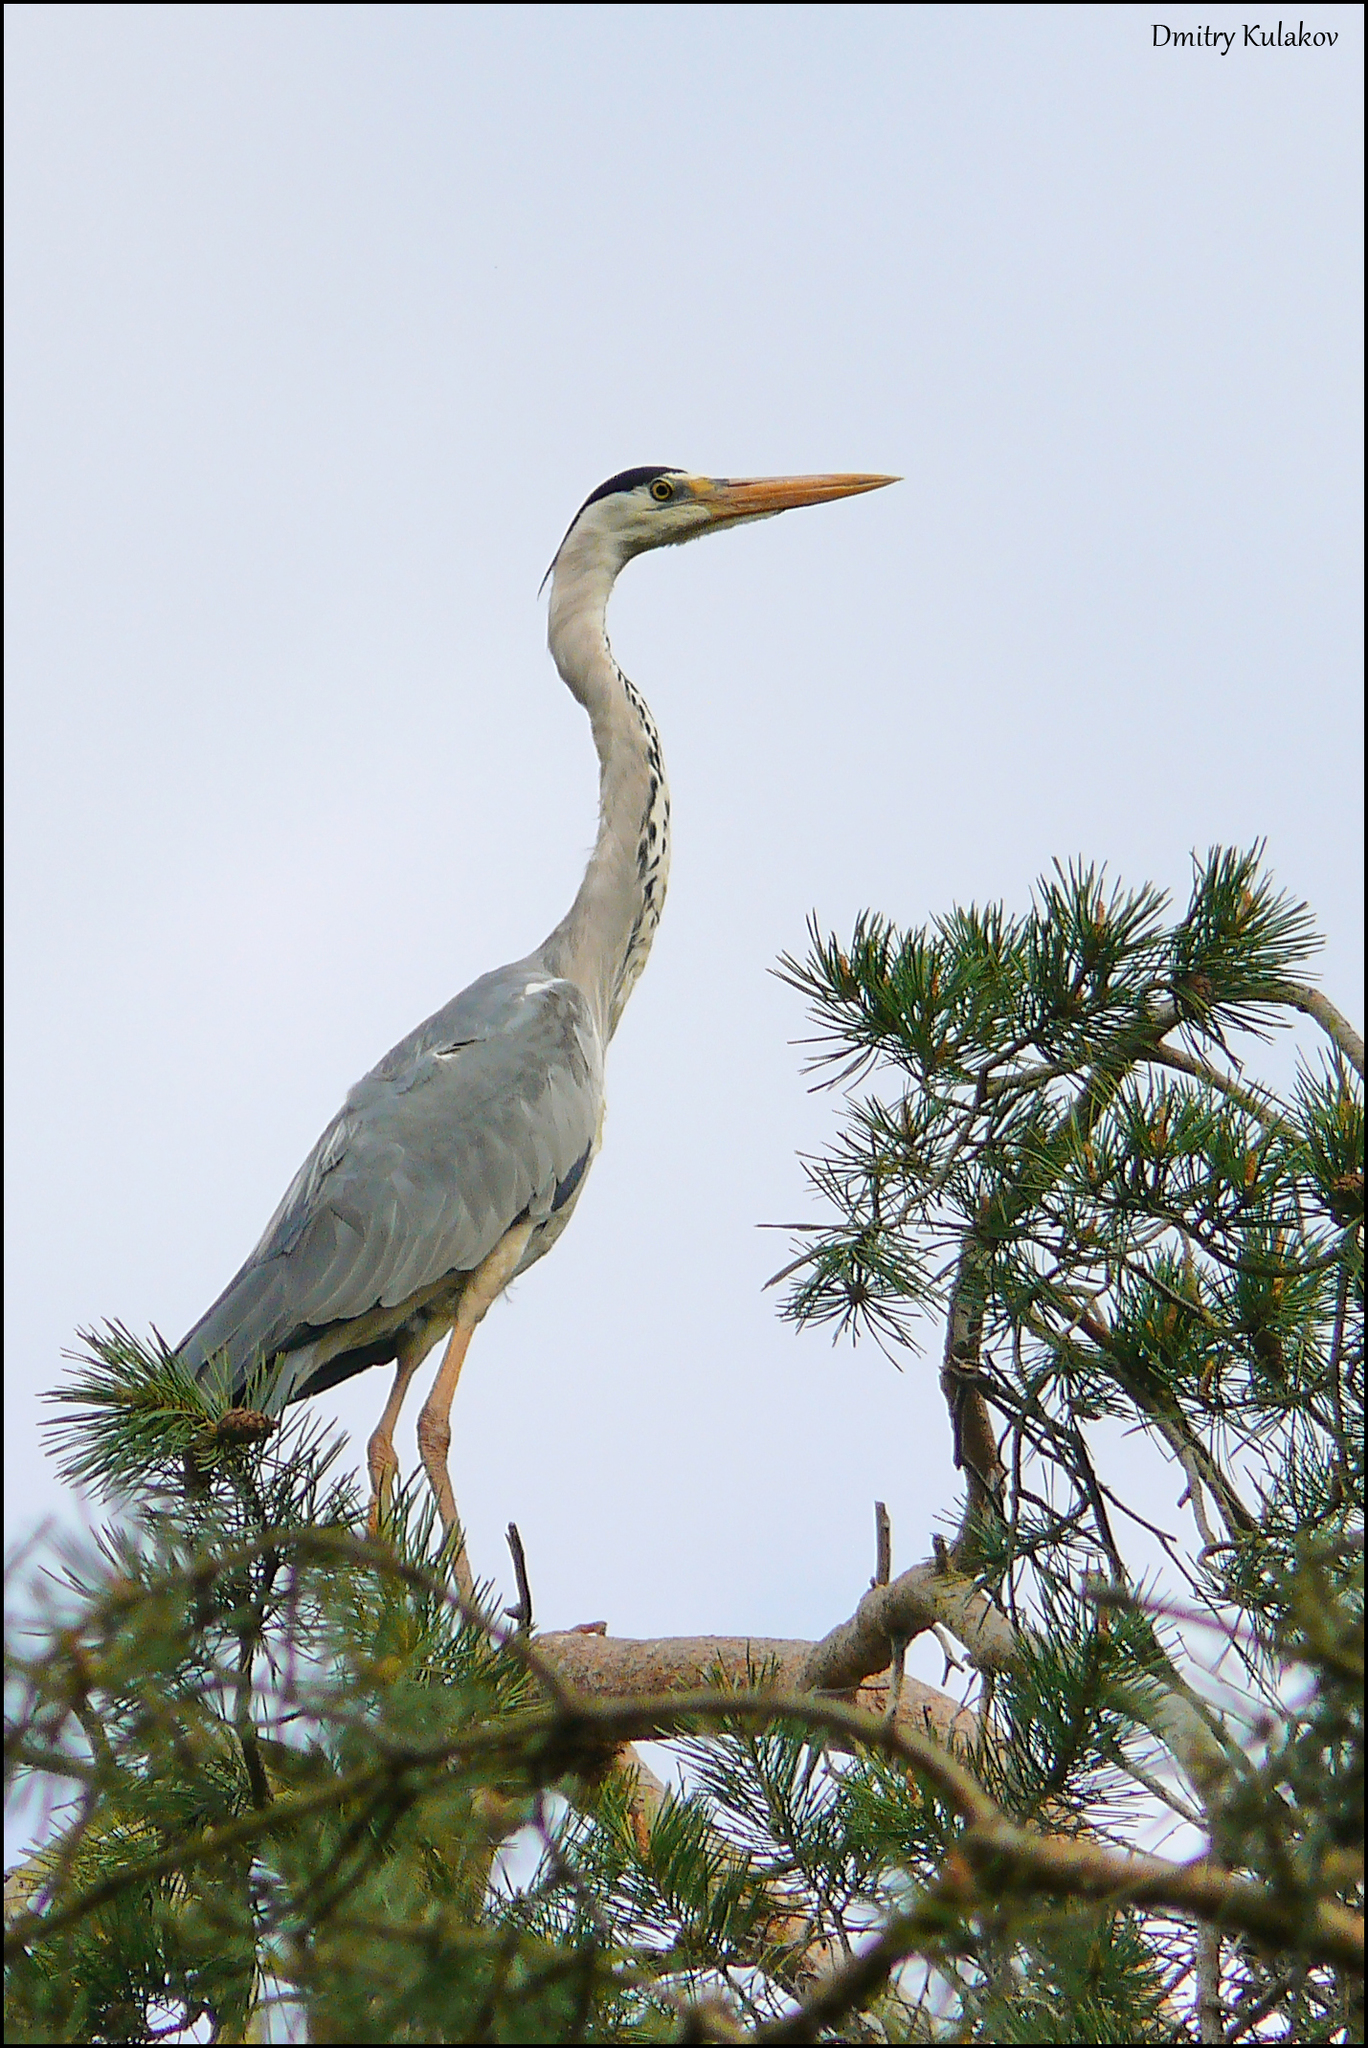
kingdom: Animalia
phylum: Chordata
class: Aves
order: Pelecaniformes
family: Ardeidae
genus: Ardea
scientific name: Ardea cinerea
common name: Grey heron
